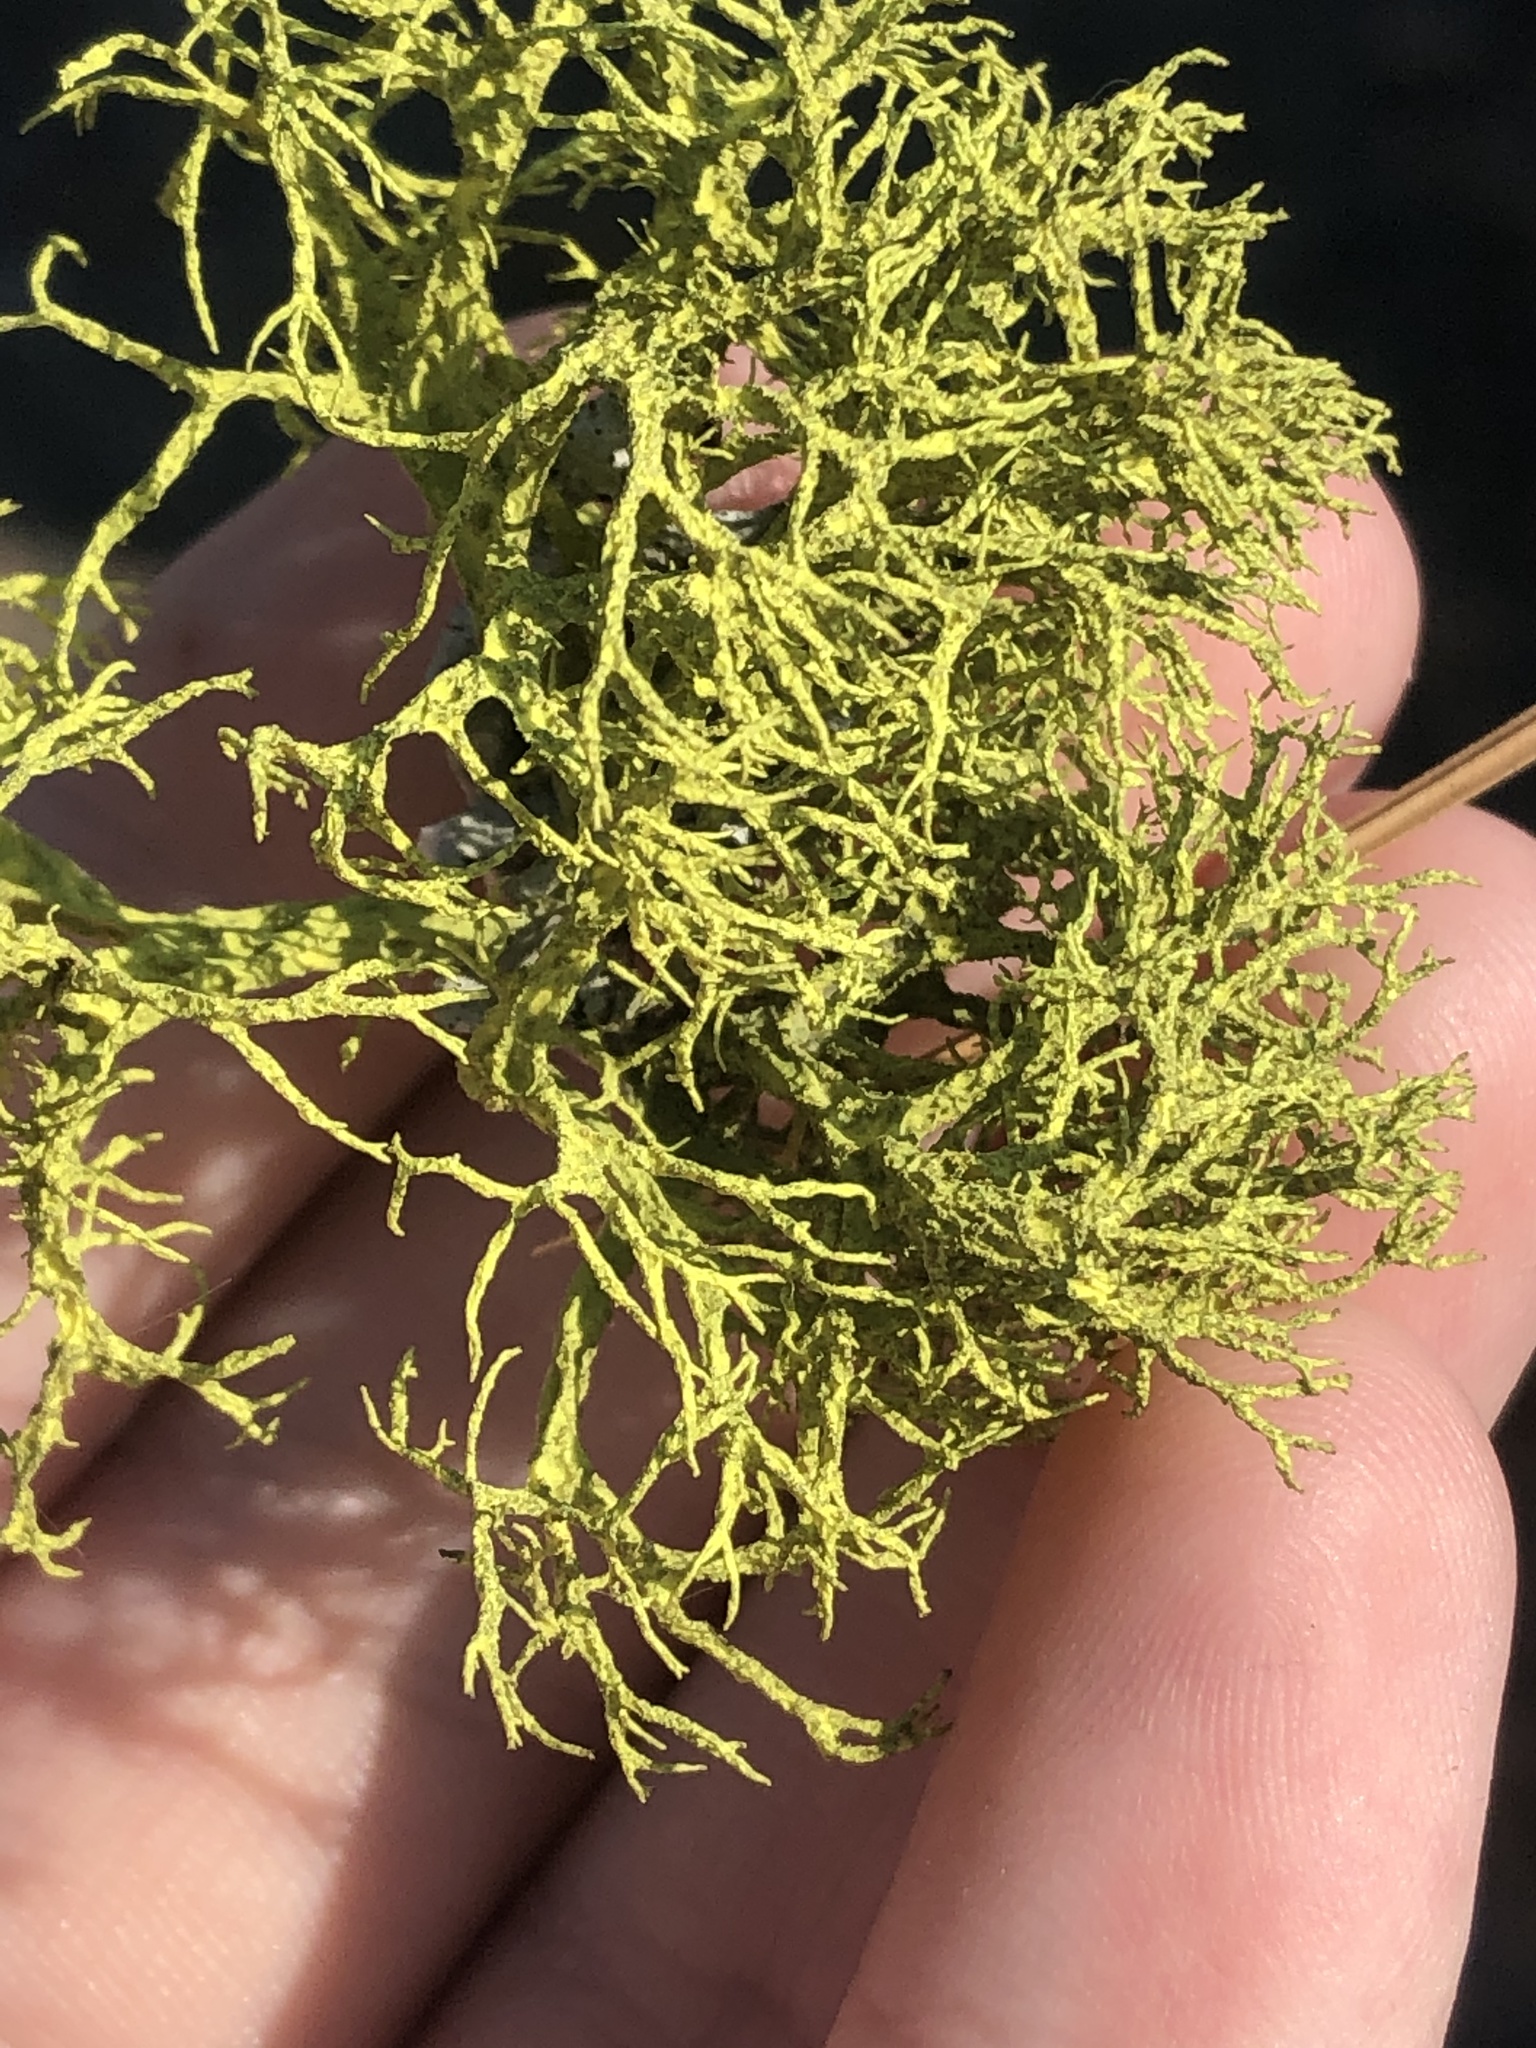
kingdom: Fungi
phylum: Ascomycota
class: Lecanoromycetes
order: Lecanorales
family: Parmeliaceae
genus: Letharia
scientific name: Letharia vulpina
